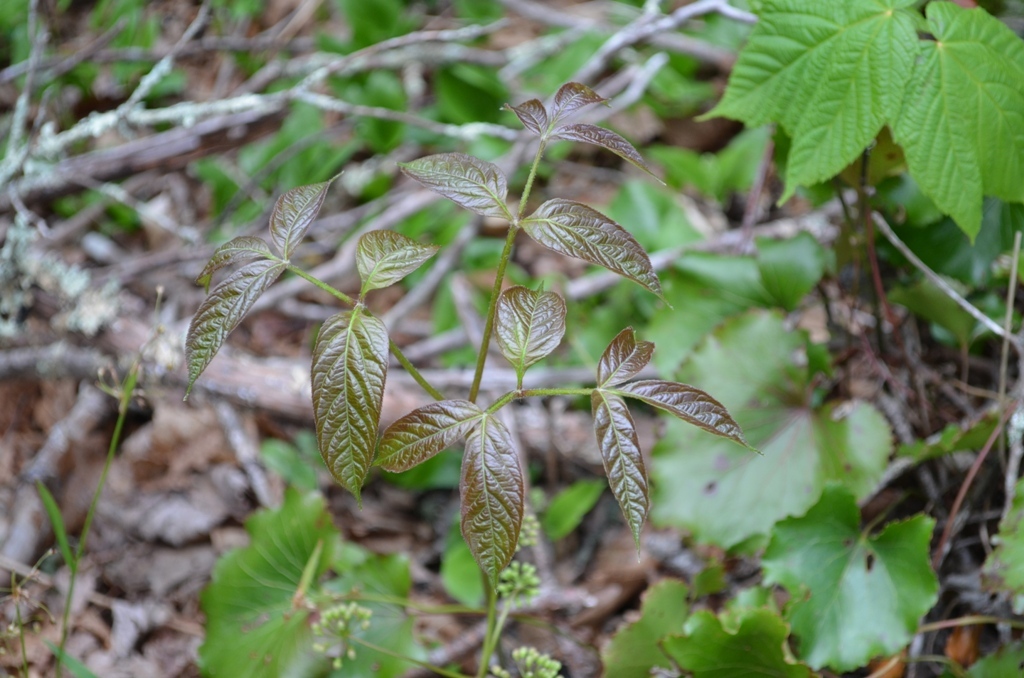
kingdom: Plantae
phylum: Tracheophyta
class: Magnoliopsida
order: Apiales
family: Araliaceae
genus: Aralia
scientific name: Aralia nudicaulis
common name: Wild sarsaparilla
